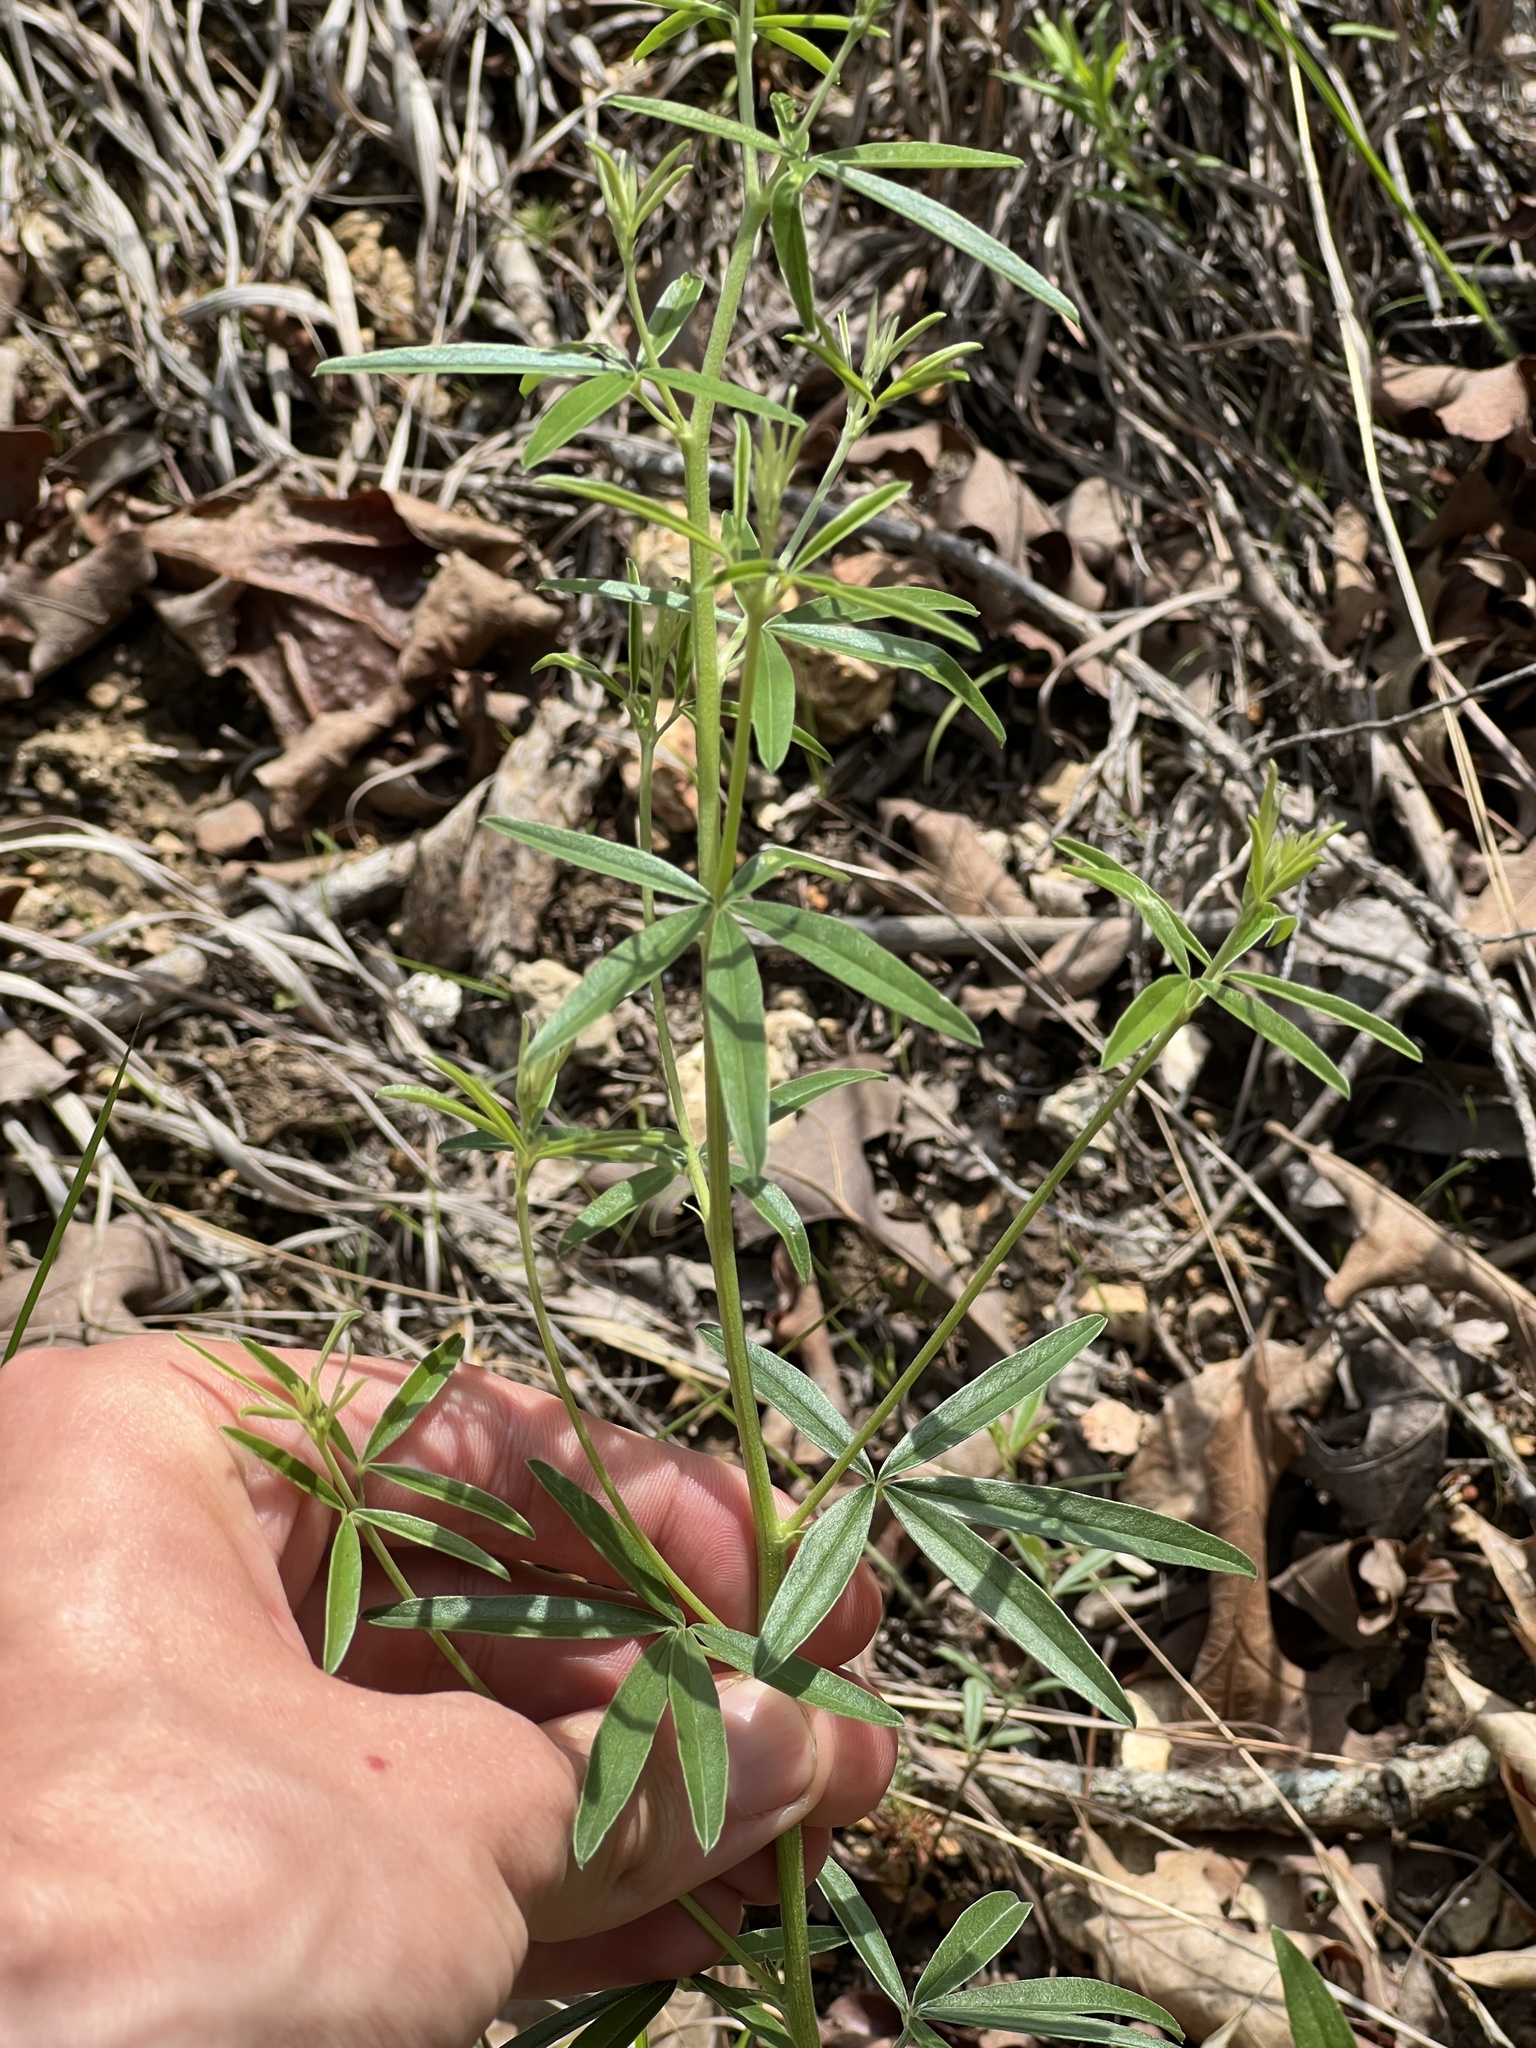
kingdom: Plantae
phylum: Tracheophyta
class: Magnoliopsida
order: Fabales
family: Fabaceae
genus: Pediomelum
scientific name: Pediomelum tenuiflorum
